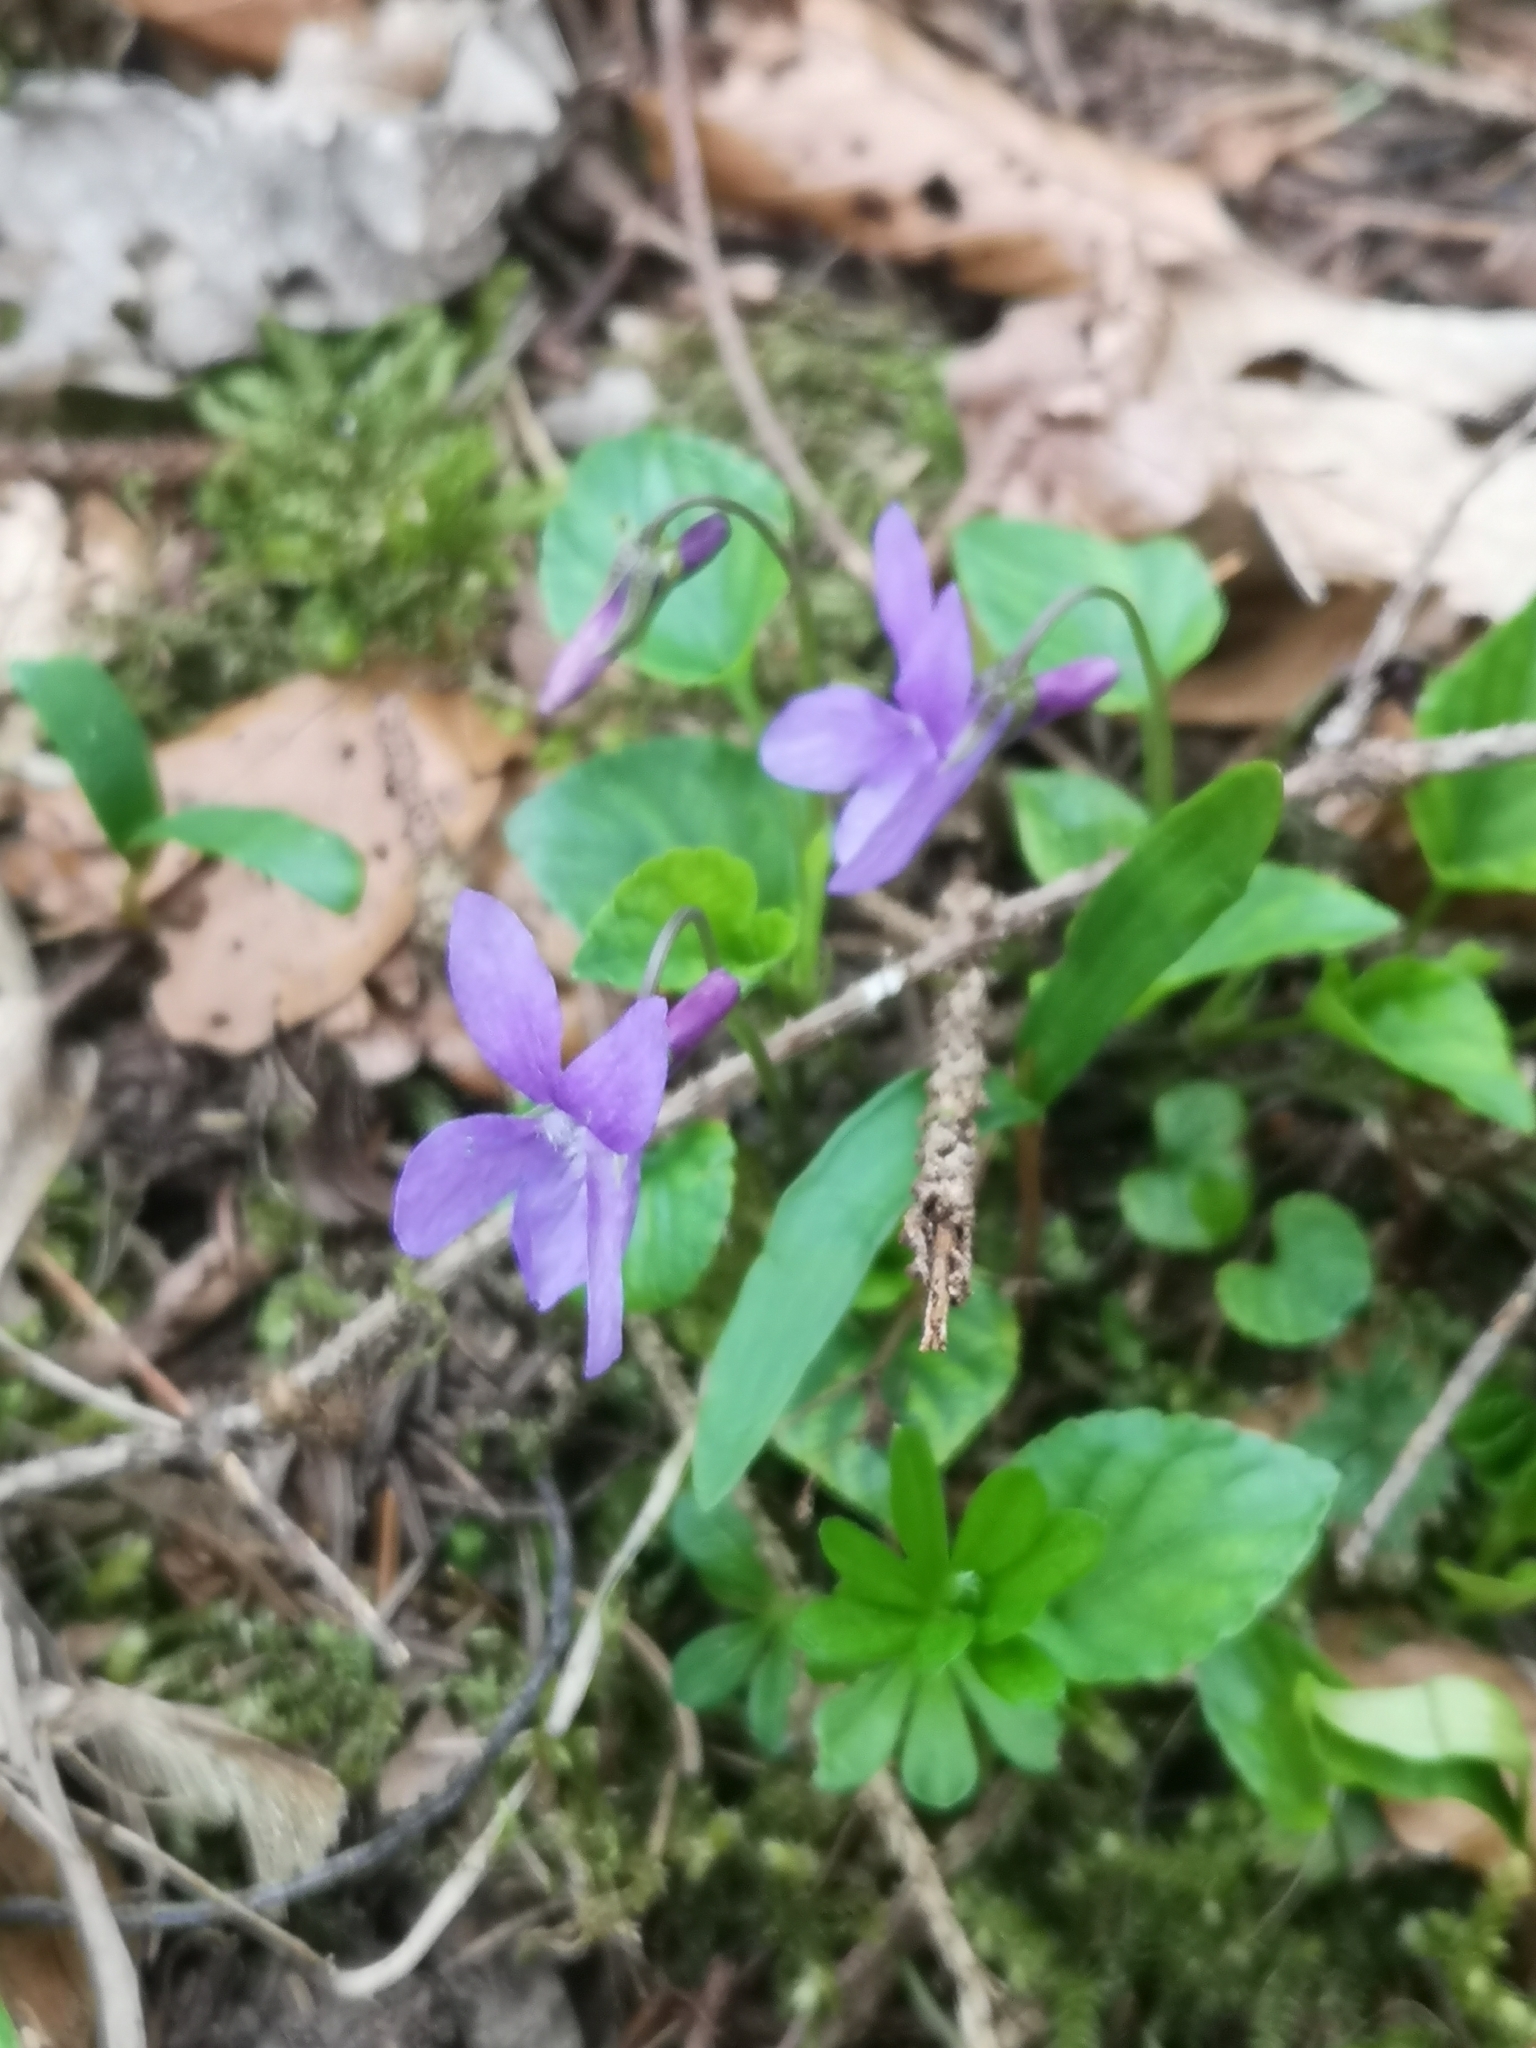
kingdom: Plantae
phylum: Tracheophyta
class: Magnoliopsida
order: Malpighiales
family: Violaceae
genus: Viola
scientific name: Viola reichenbachiana
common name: Early dog-violet
